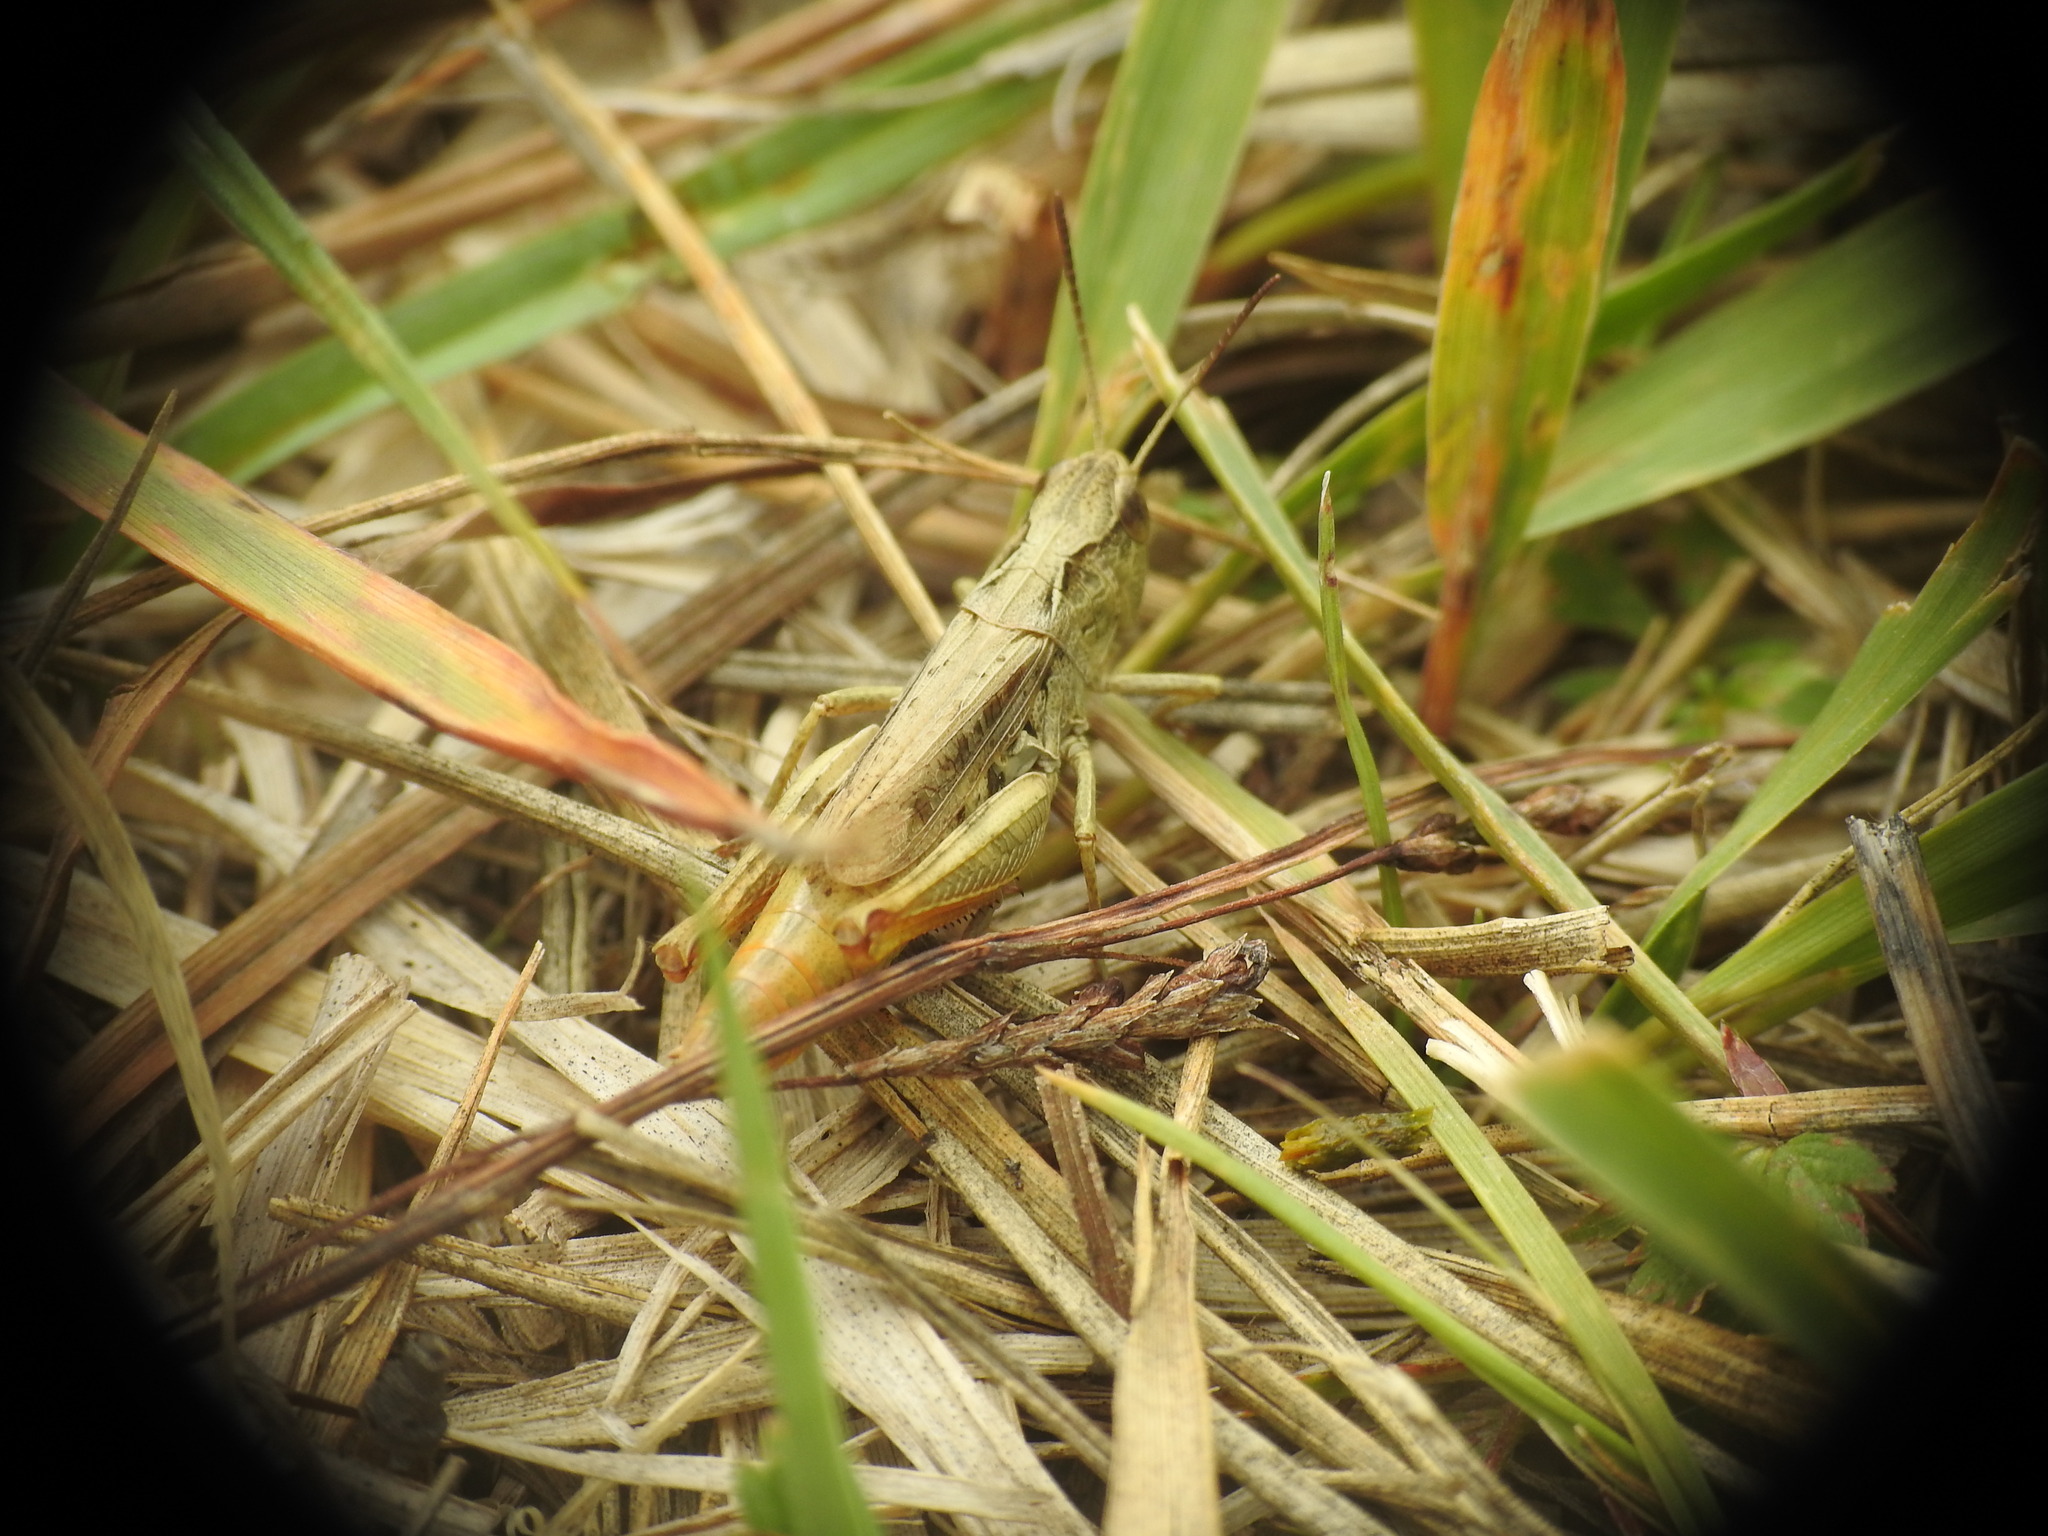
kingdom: Animalia
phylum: Arthropoda
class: Insecta
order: Orthoptera
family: Acrididae
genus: Chorthippus
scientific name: Chorthippus apricarius
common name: Upland field grasshopper
